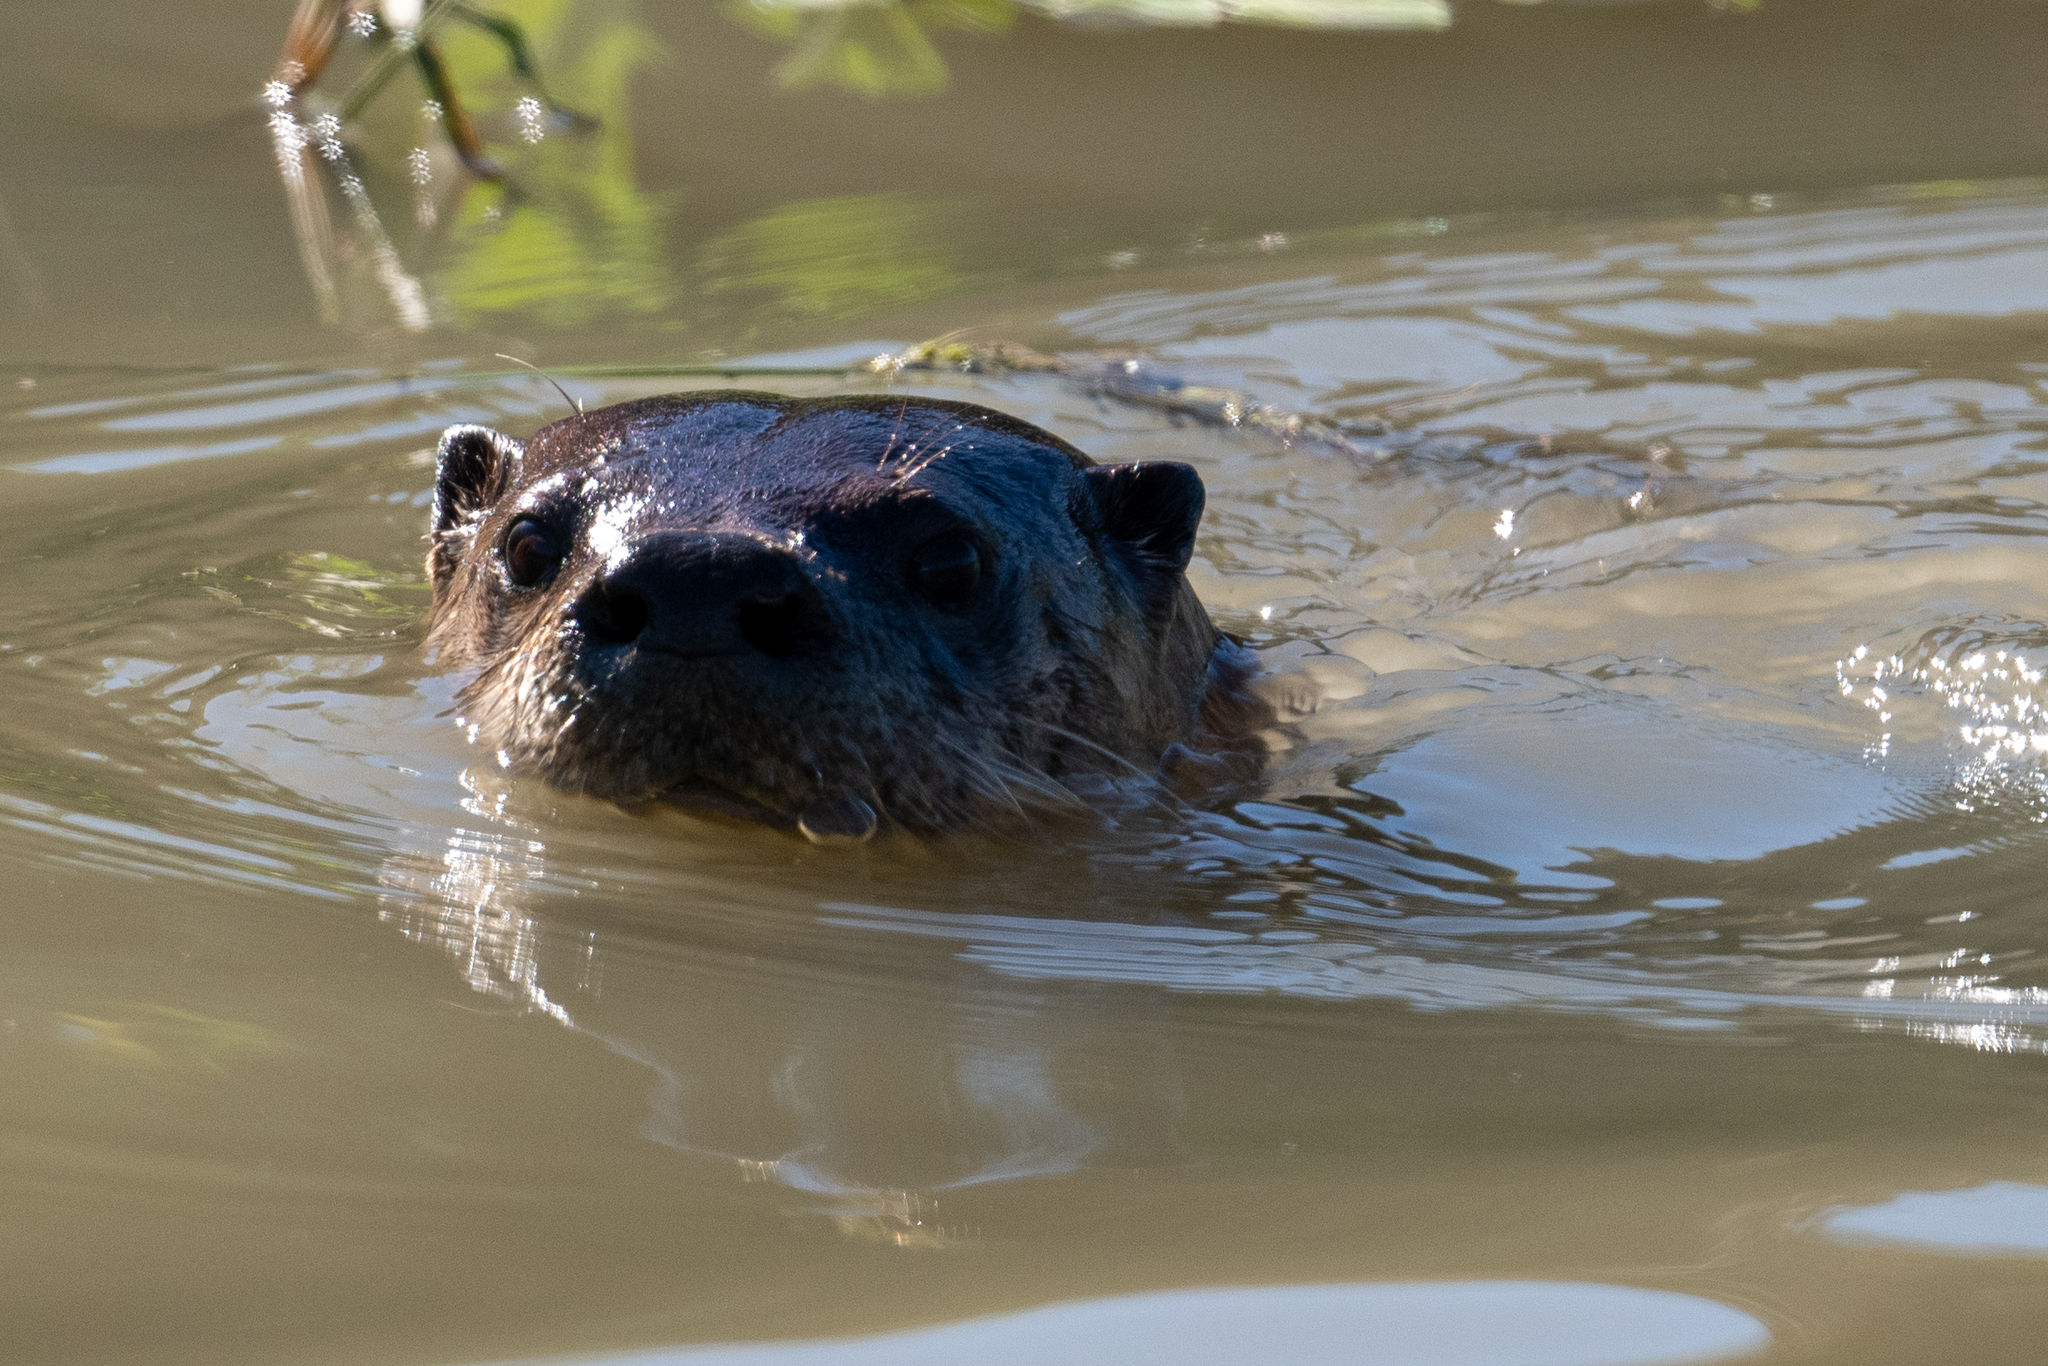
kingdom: Animalia
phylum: Chordata
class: Mammalia
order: Carnivora
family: Mustelidae
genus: Lontra
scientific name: Lontra canadensis
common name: North american river otter
